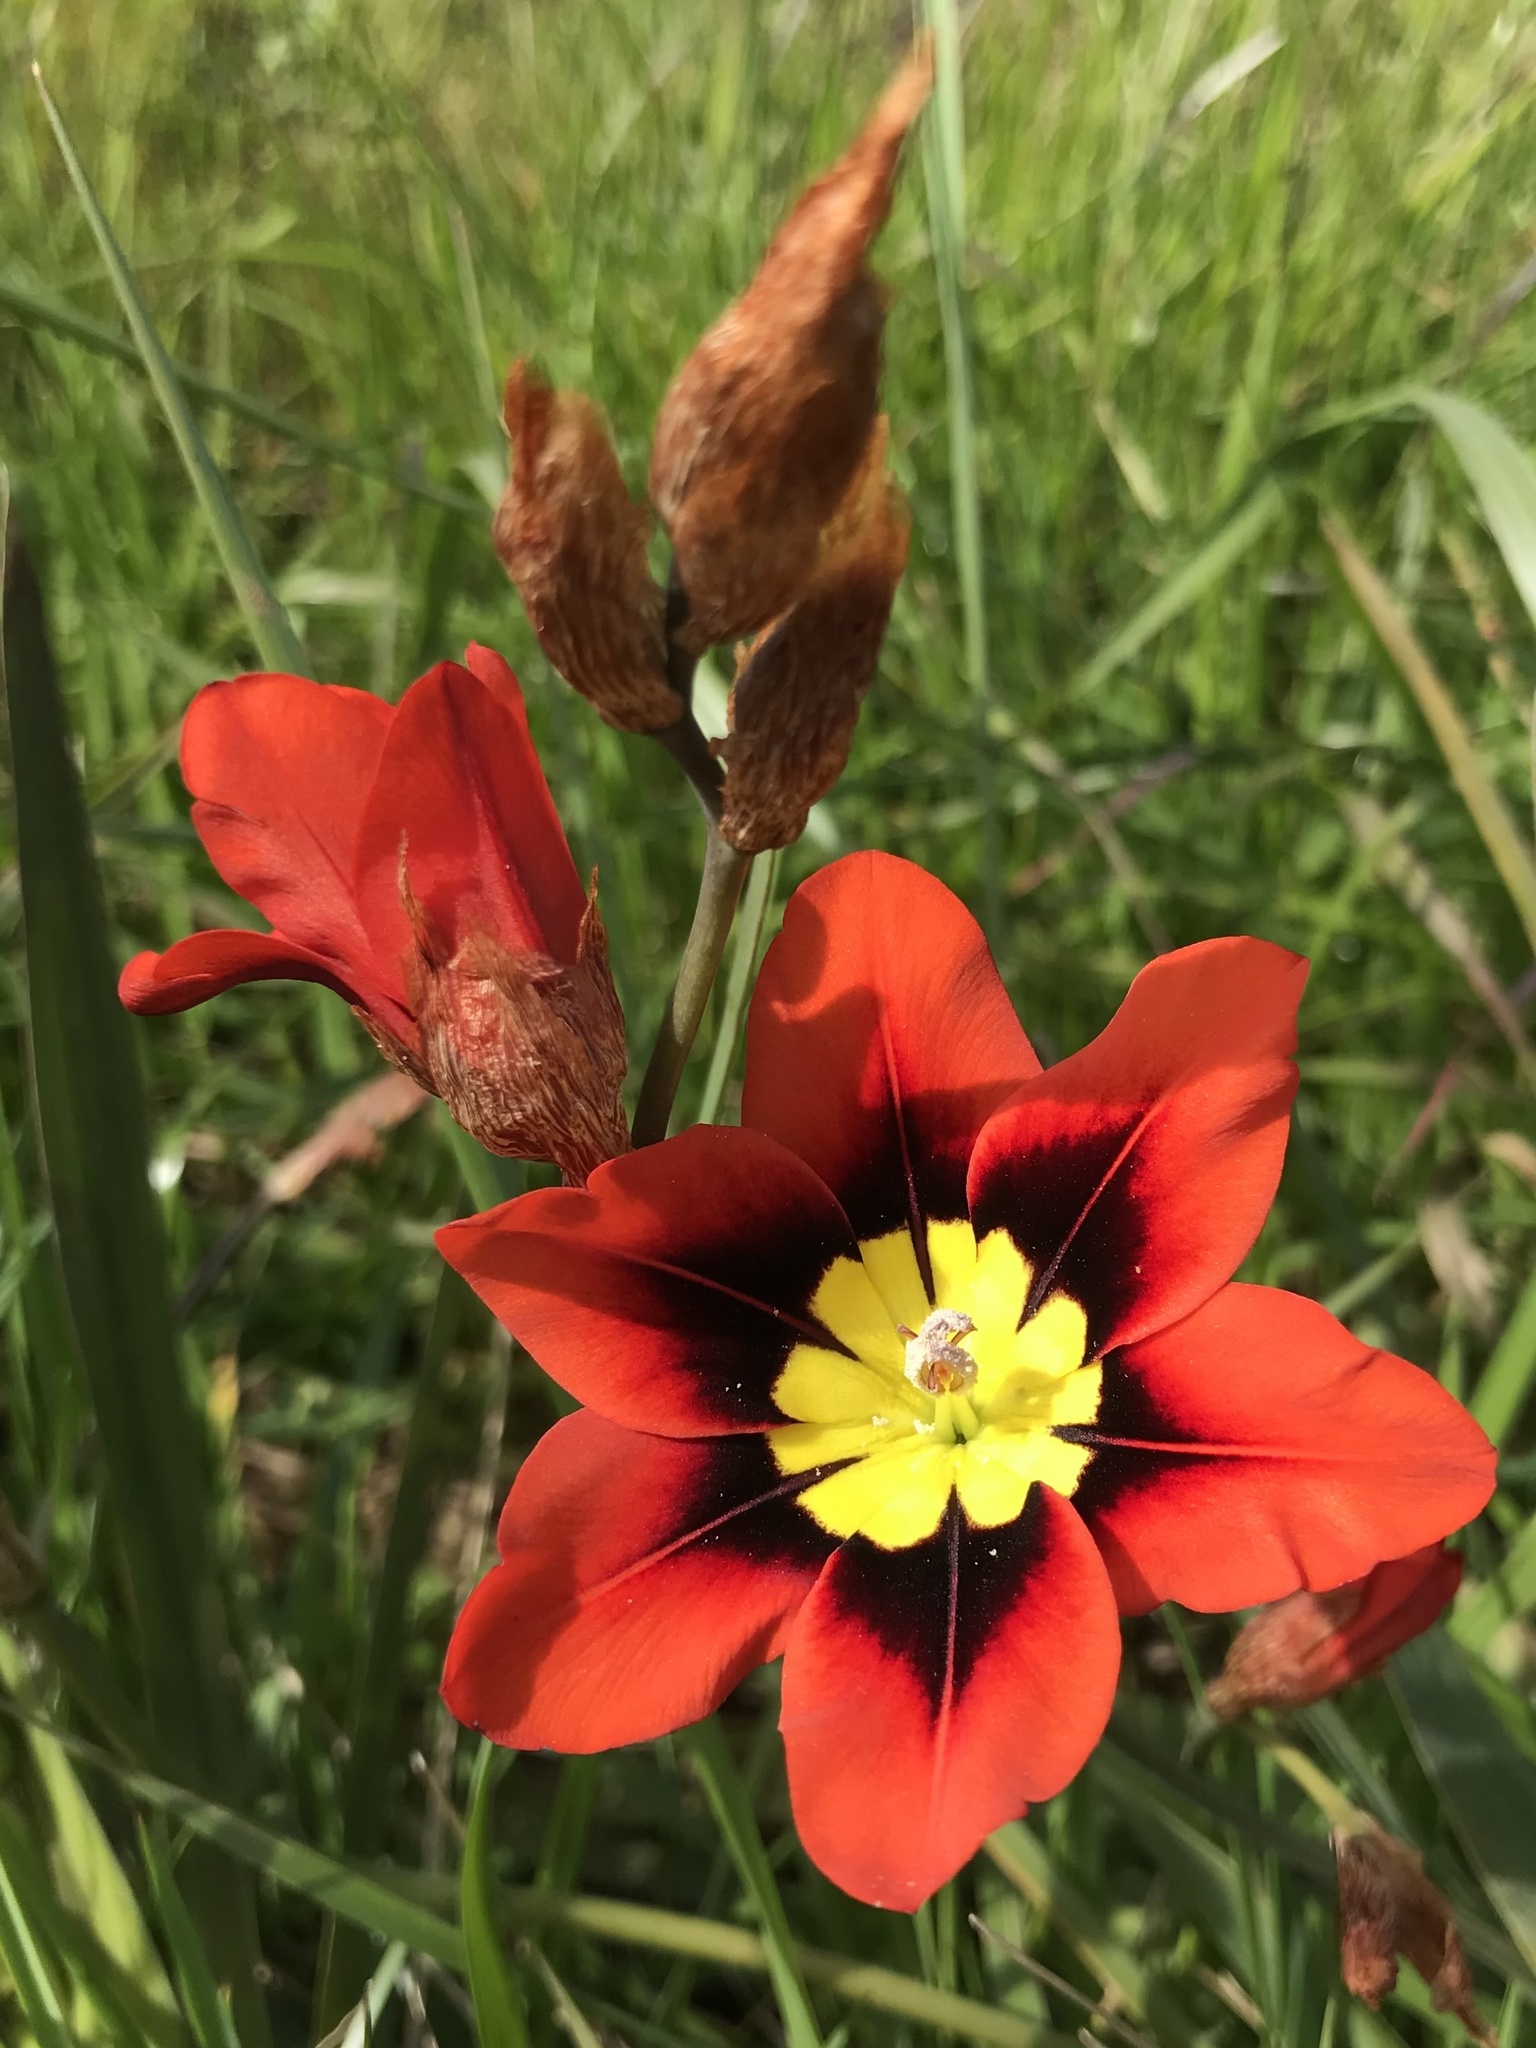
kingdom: Plantae
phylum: Tracheophyta
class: Liliopsida
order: Asparagales
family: Iridaceae
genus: Sparaxis
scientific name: Sparaxis tricolor
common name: Wandflower
